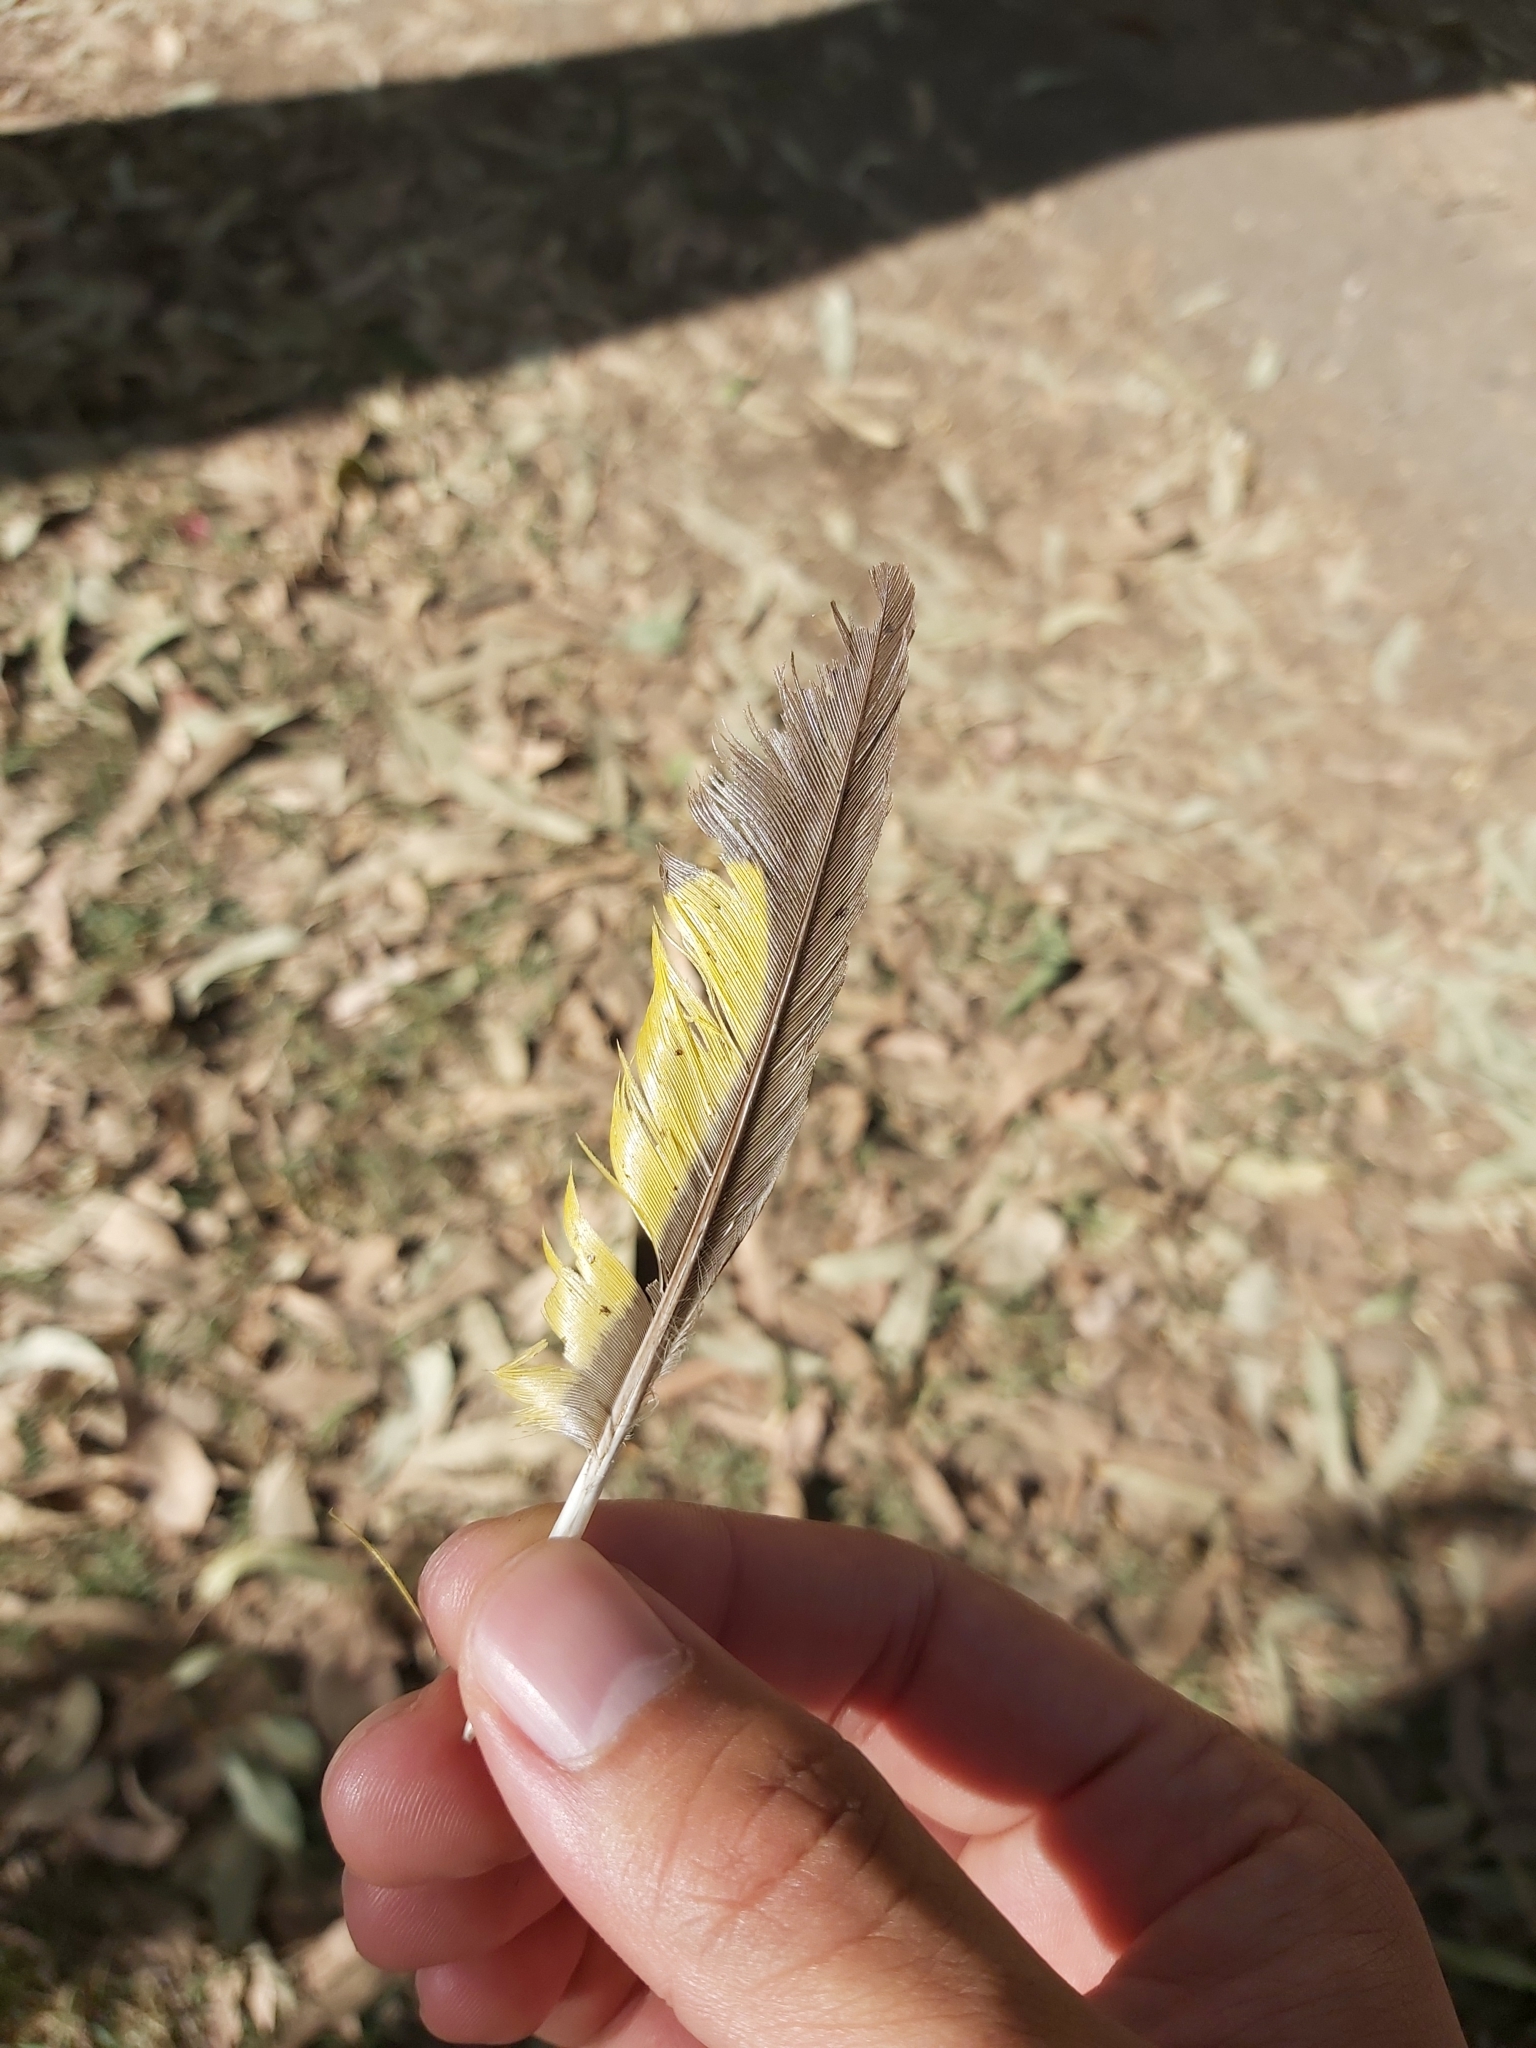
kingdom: Animalia
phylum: Chordata
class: Aves
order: Psittaciformes
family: Psittacidae
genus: Trichoglossus
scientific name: Trichoglossus haematodus
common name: Coconut lorikeet
